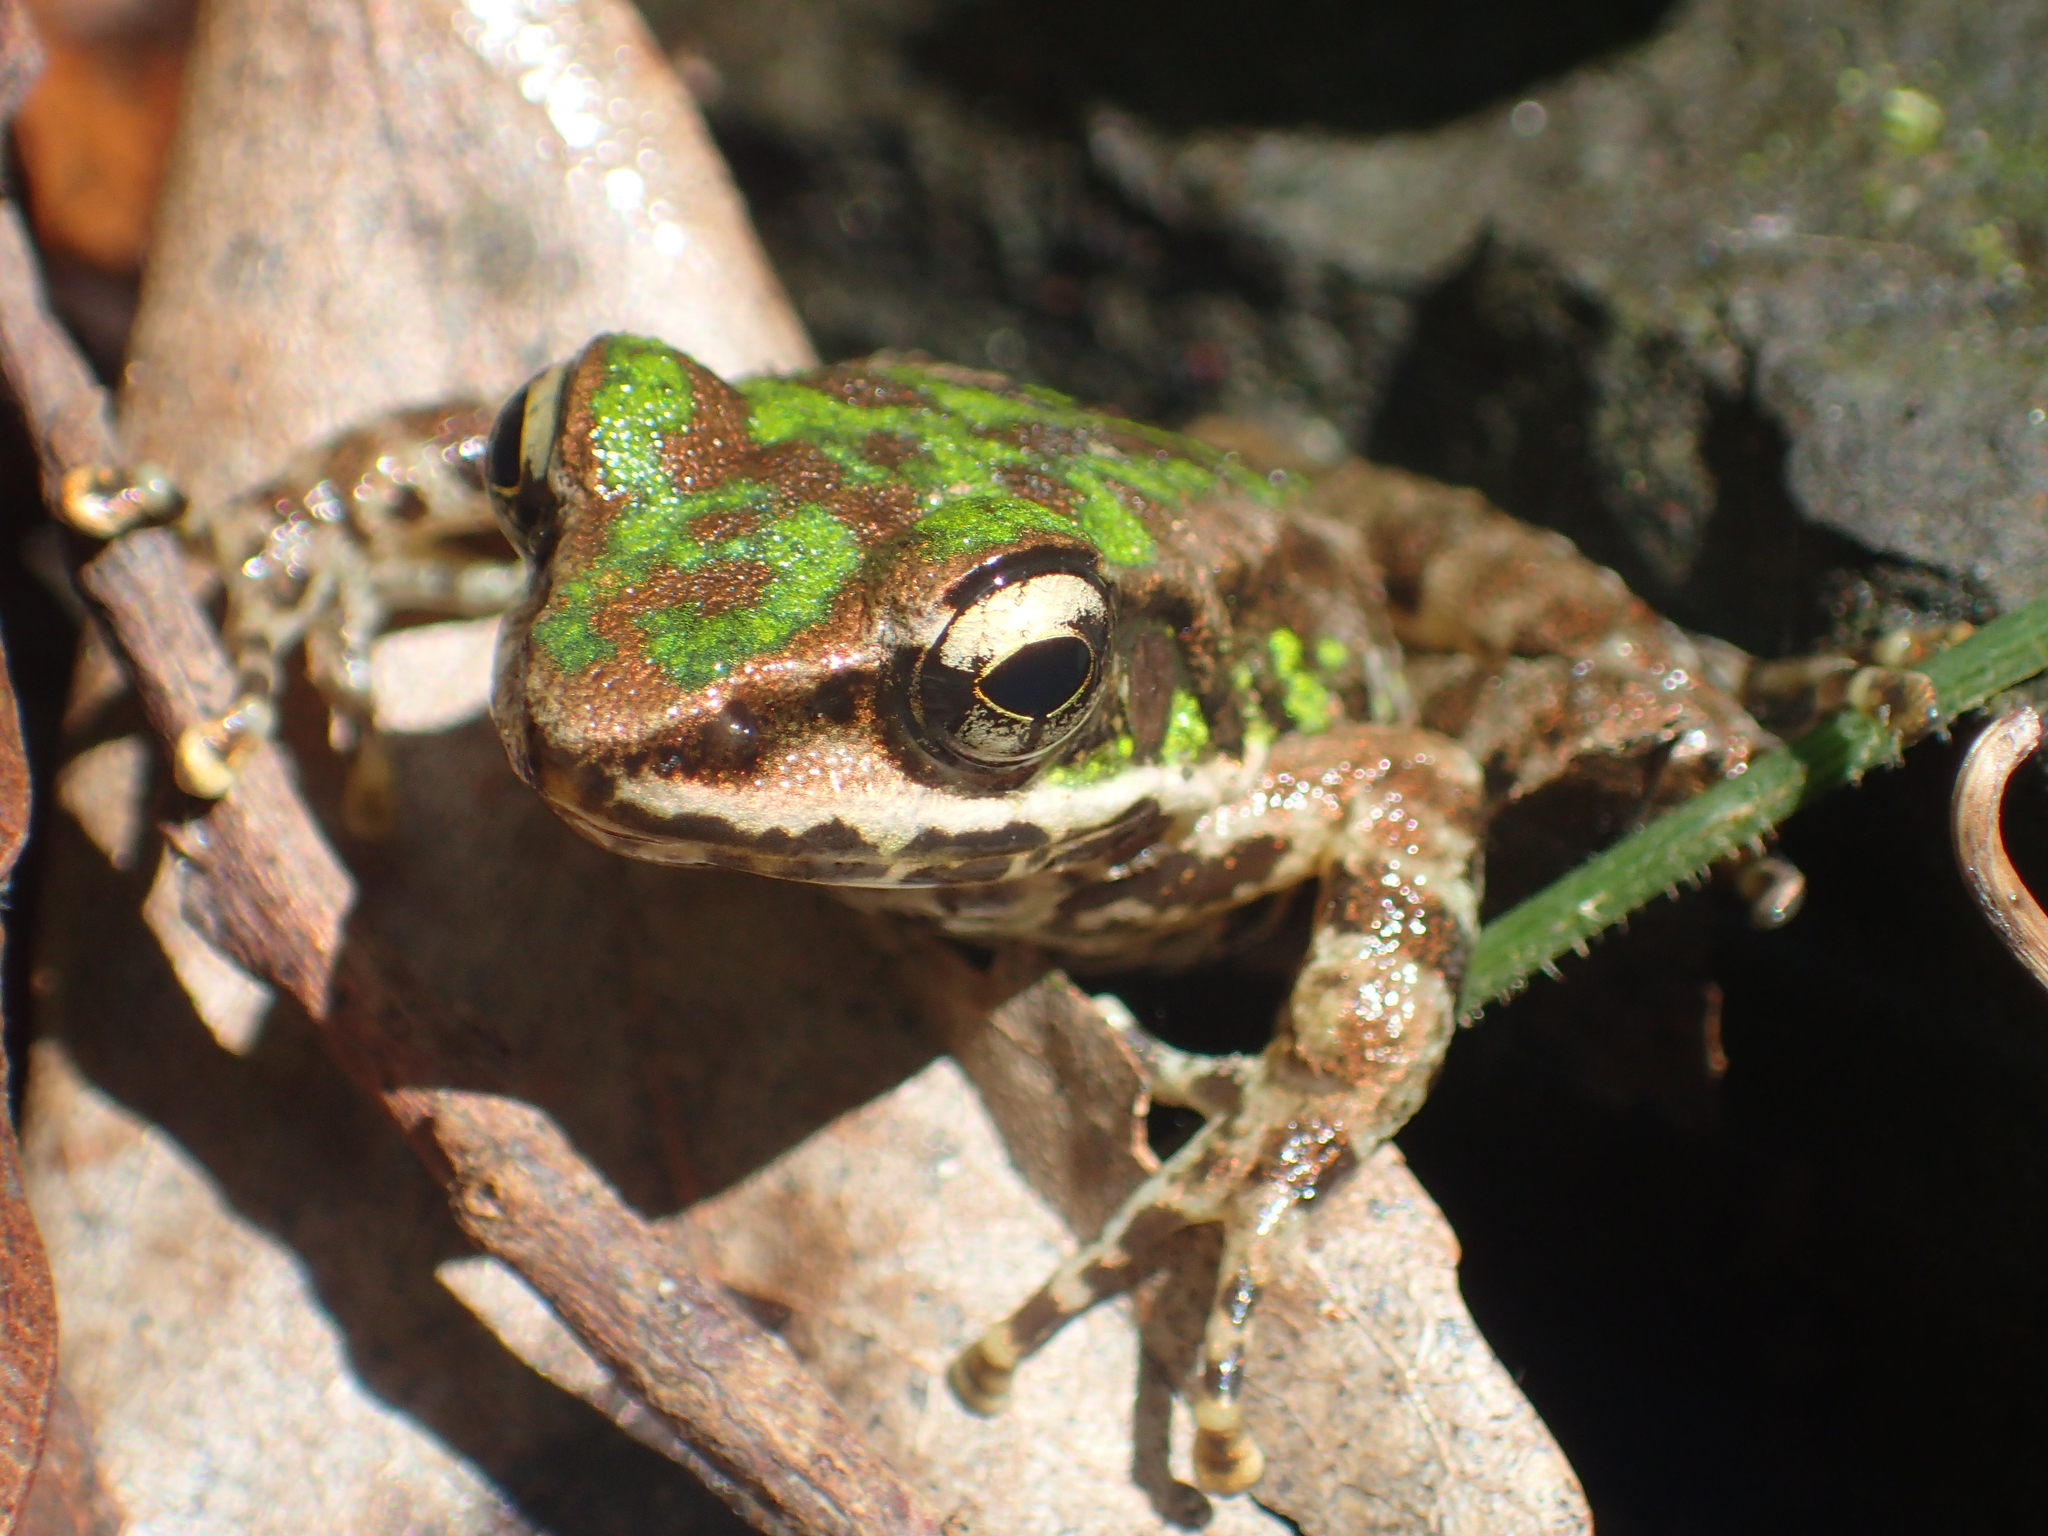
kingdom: Animalia
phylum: Chordata
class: Amphibia
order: Anura
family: Ranidae
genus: Odorrana
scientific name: Odorrana swinhoana
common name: Bangkimtsing frog
